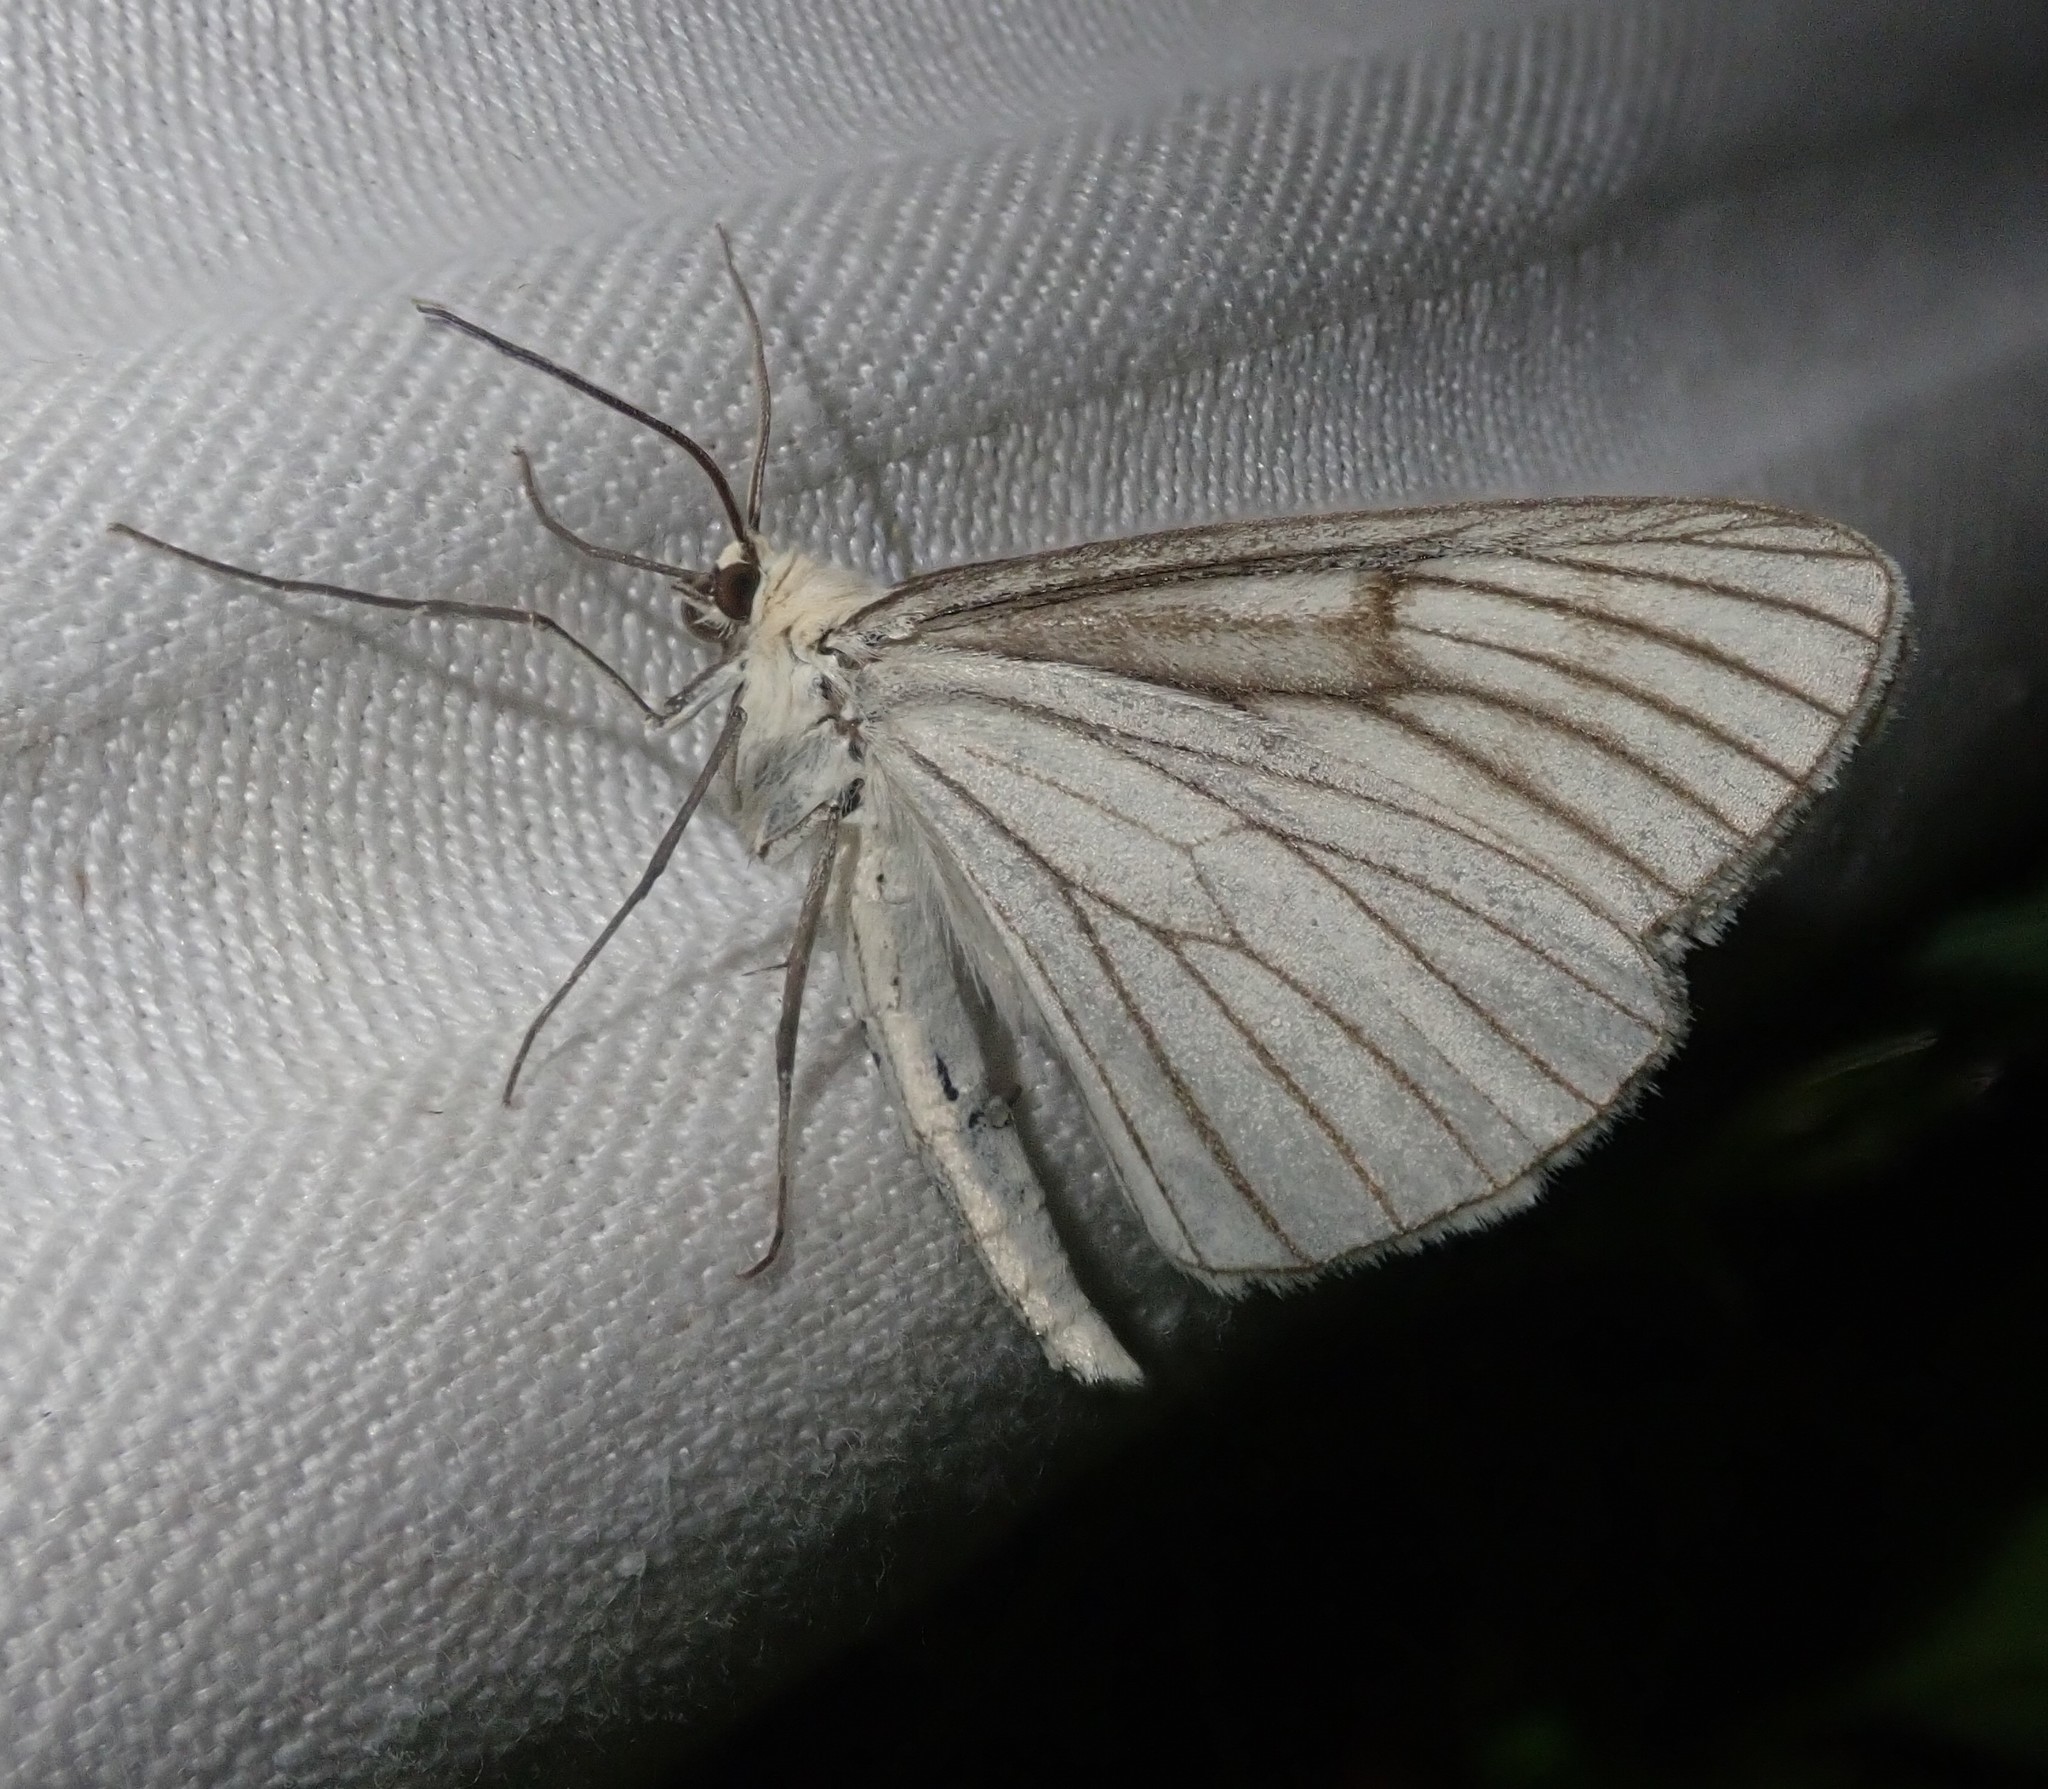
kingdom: Animalia
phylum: Arthropoda
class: Insecta
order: Lepidoptera
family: Geometridae
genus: Siona
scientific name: Siona lineata
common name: Black-veined moth
